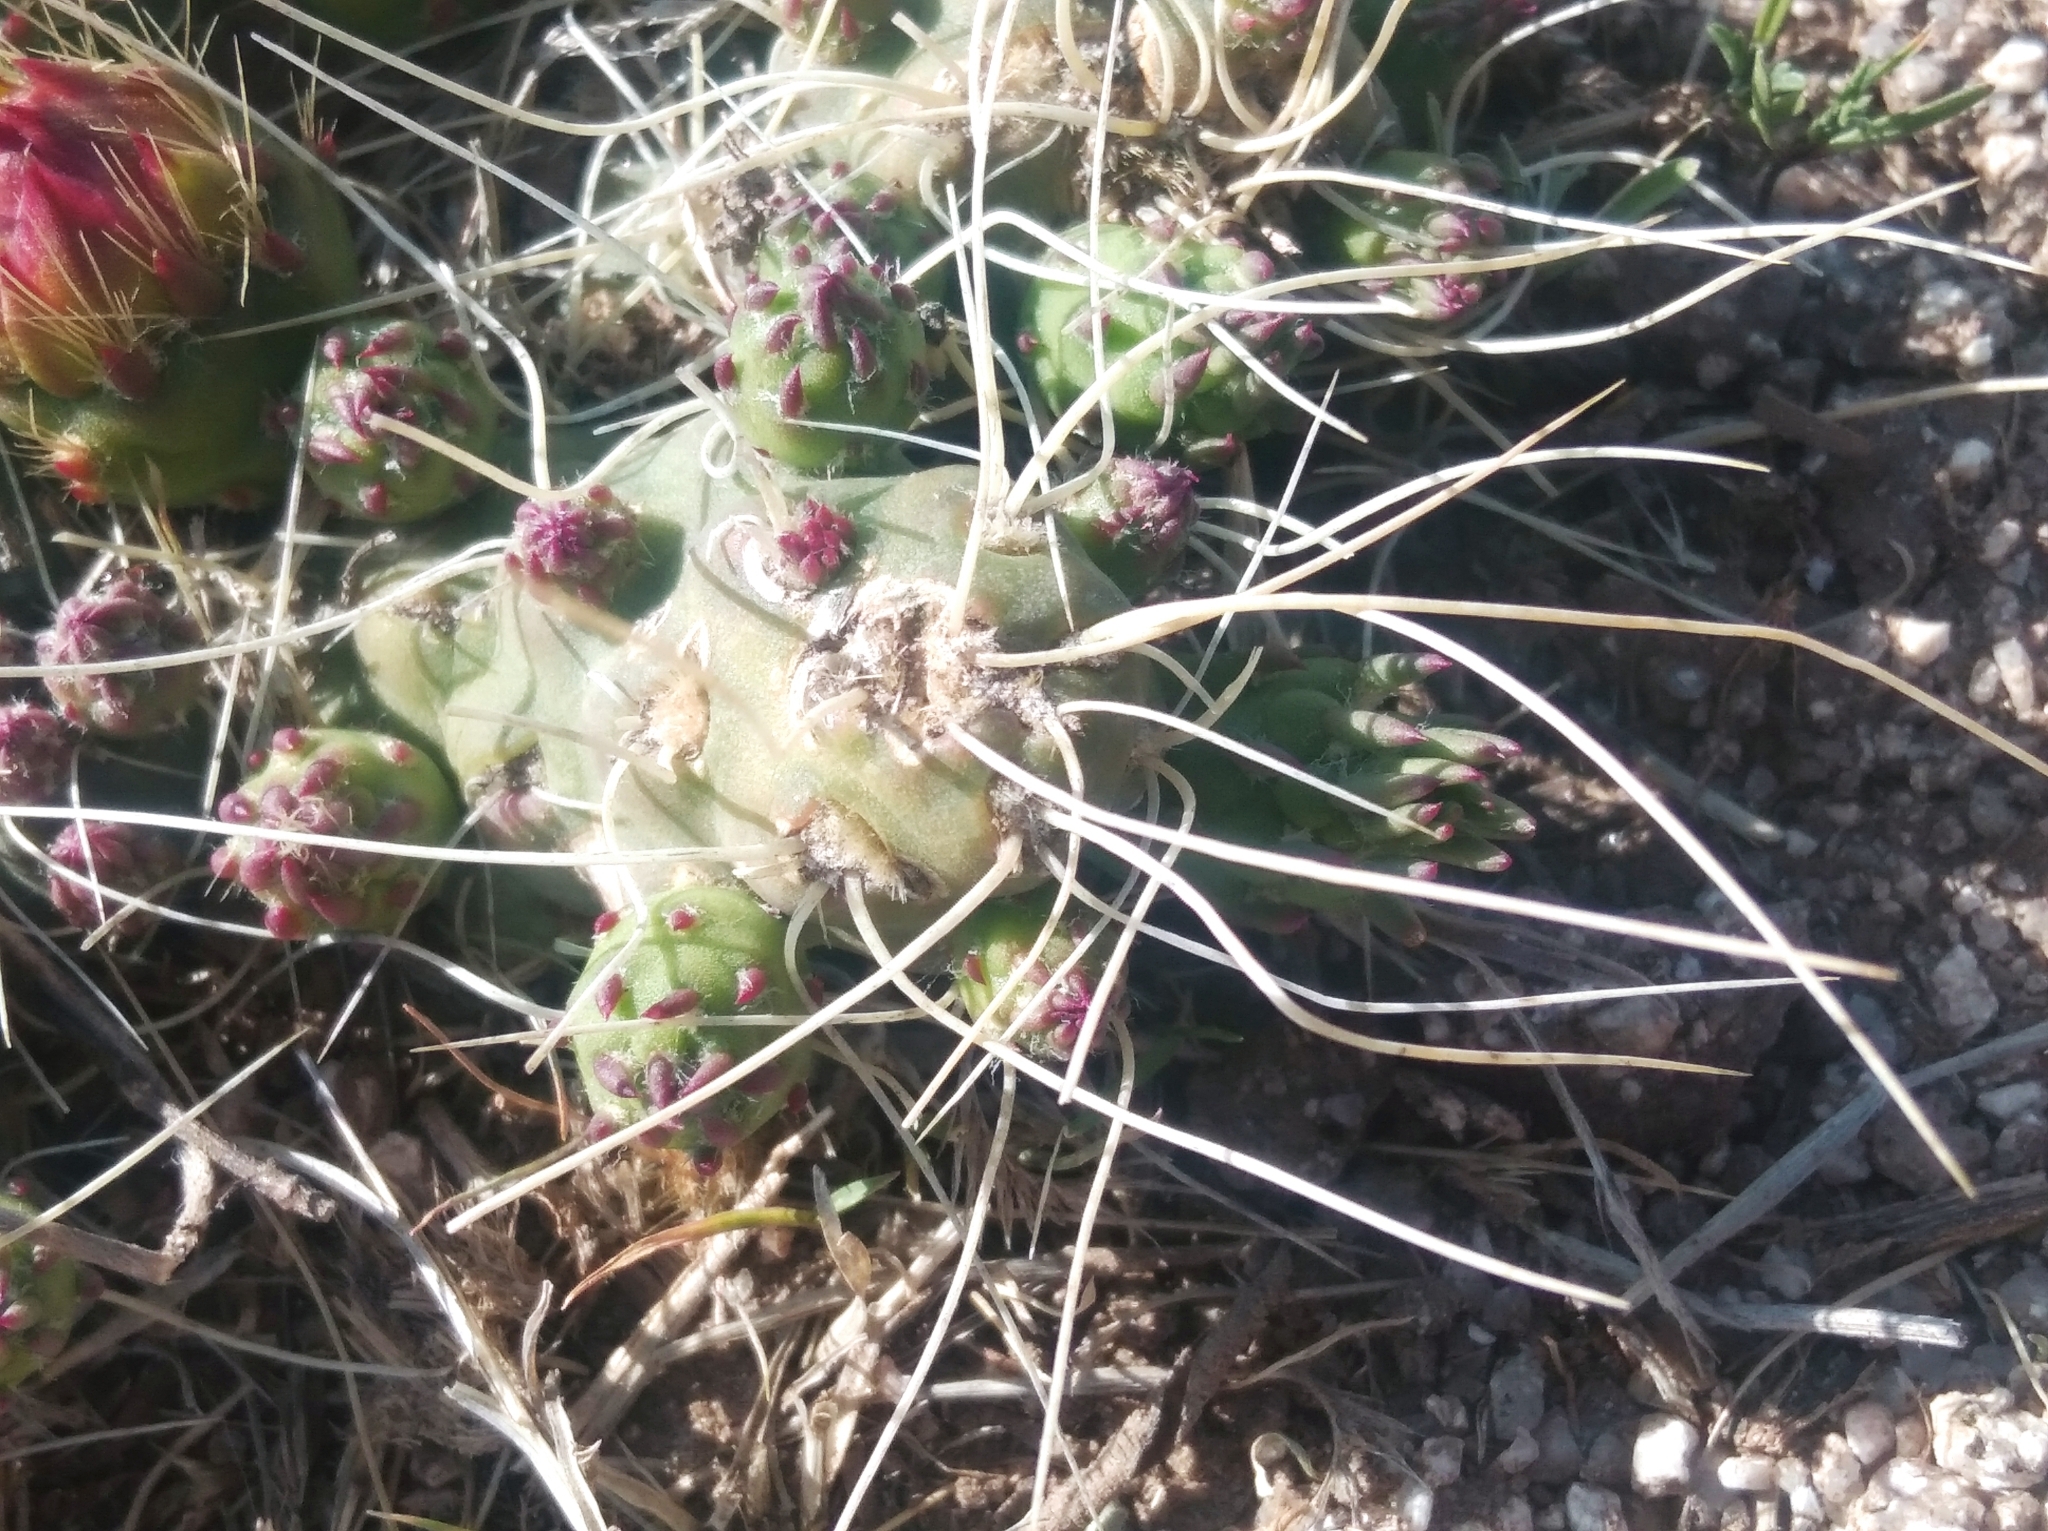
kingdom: Plantae
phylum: Tracheophyta
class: Magnoliopsida
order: Caryophyllales
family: Cactaceae
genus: Tephrocactus
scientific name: Tephrocactus verschaffeltii
